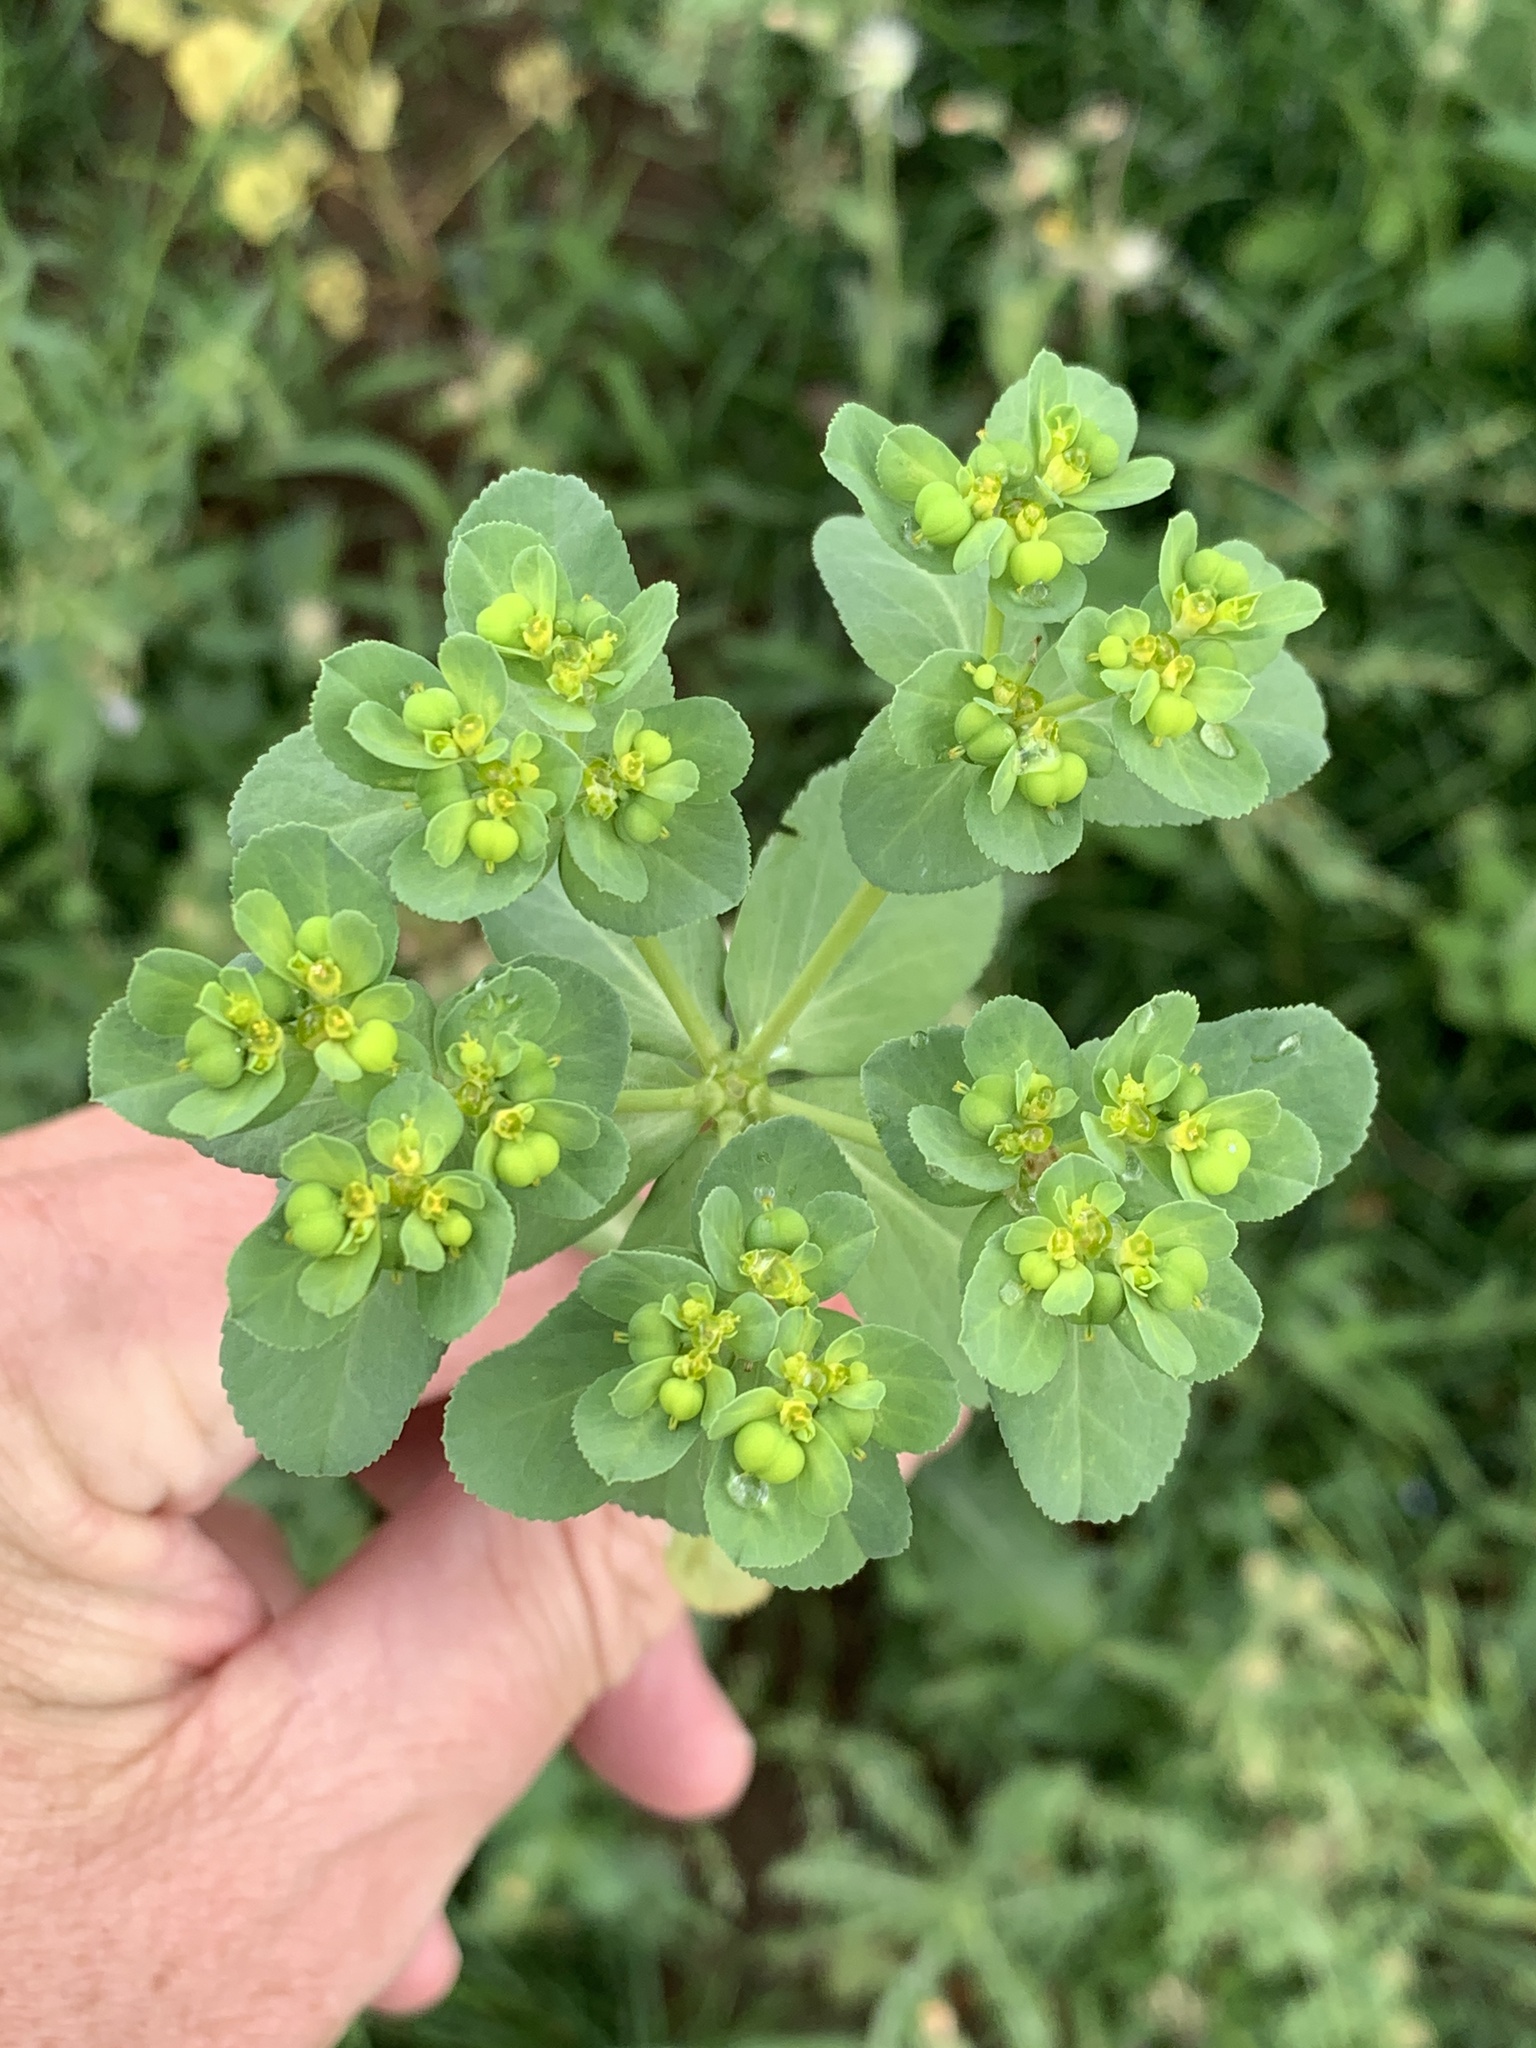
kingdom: Plantae
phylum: Tracheophyta
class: Magnoliopsida
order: Malpighiales
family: Euphorbiaceae
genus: Euphorbia
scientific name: Euphorbia helioscopia
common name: Sun spurge
